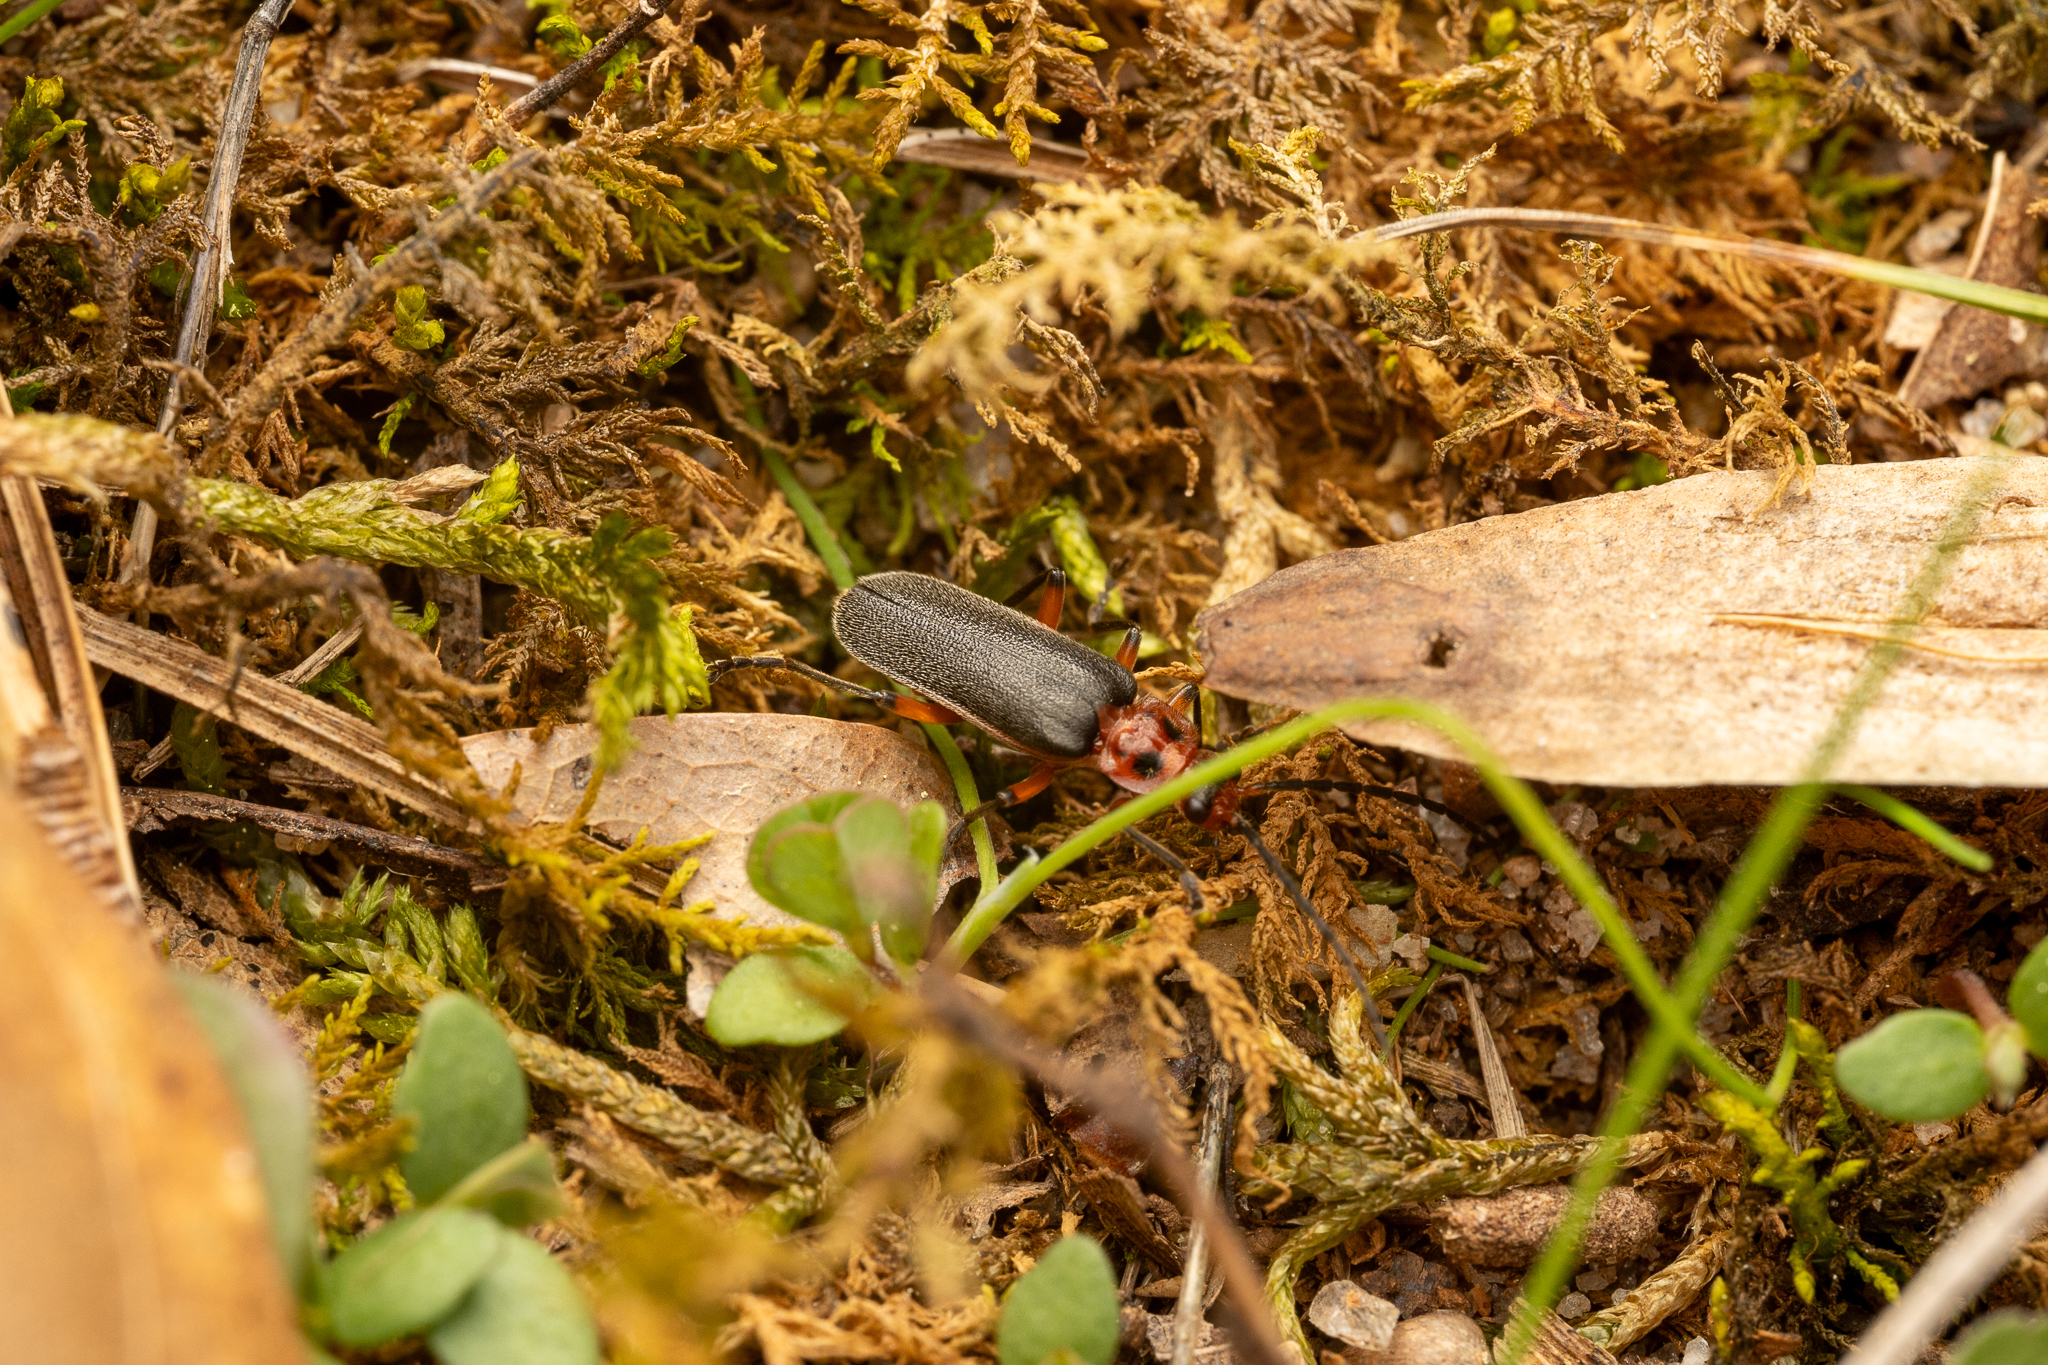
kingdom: Animalia
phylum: Arthropoda
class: Insecta
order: Coleoptera
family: Cantharidae
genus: Atalantycha
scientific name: Atalantycha bilineata
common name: Two-lined leatherwing
